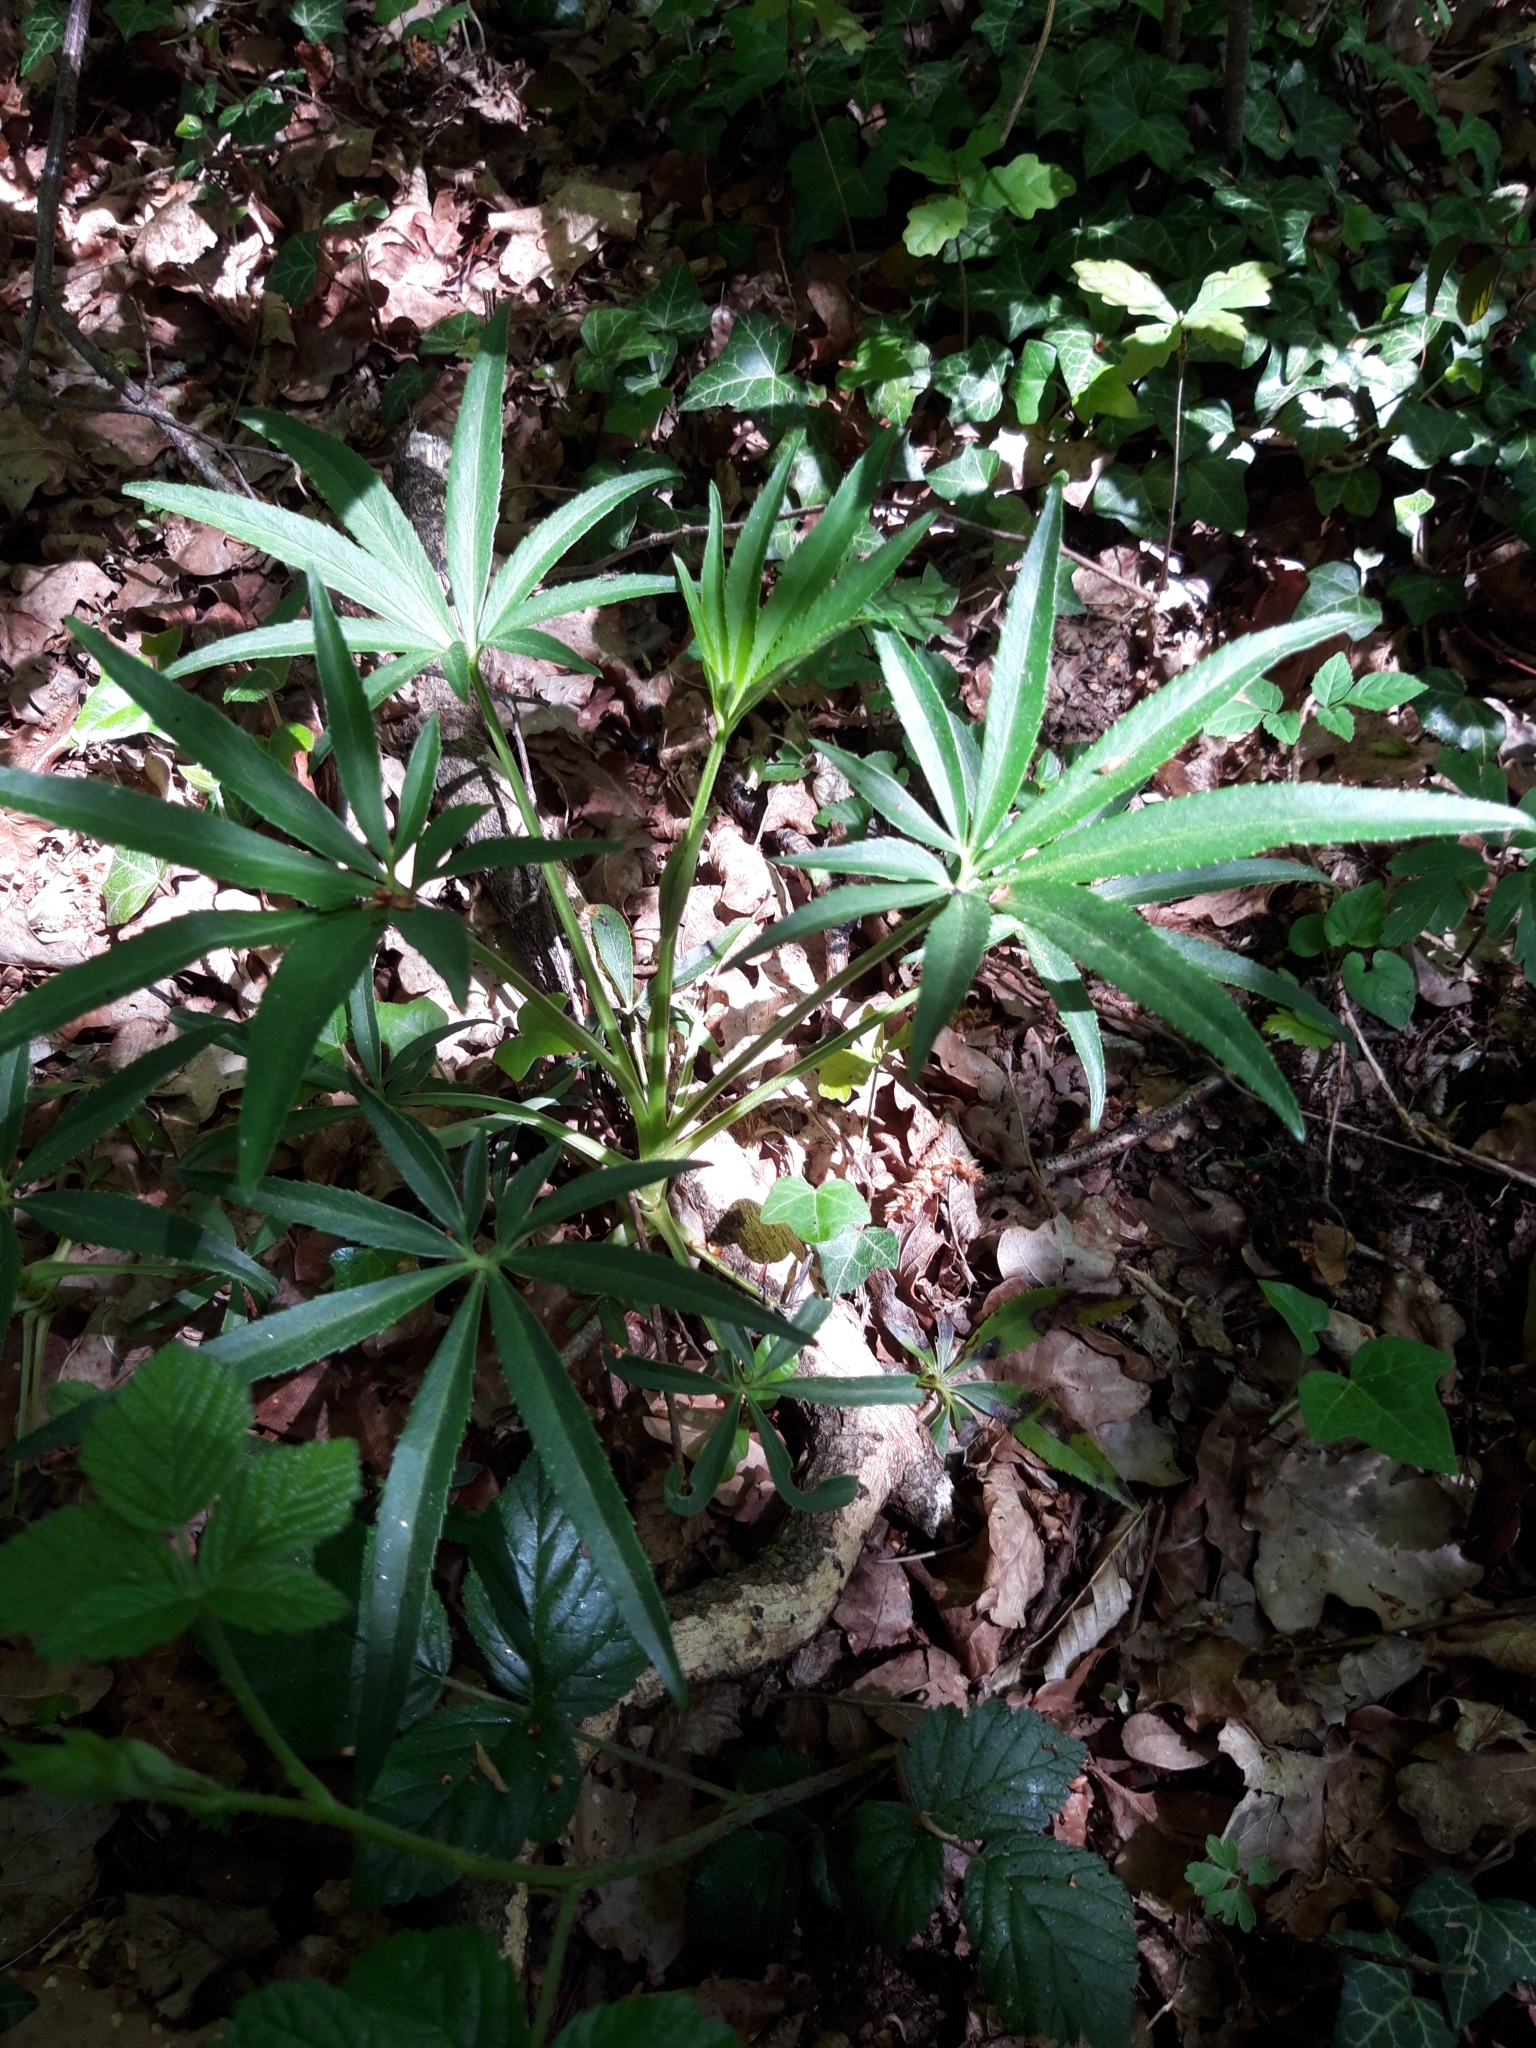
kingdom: Plantae
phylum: Tracheophyta
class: Magnoliopsida
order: Ranunculales
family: Ranunculaceae
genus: Helleborus
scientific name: Helleborus foetidus
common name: Stinking hellebore
